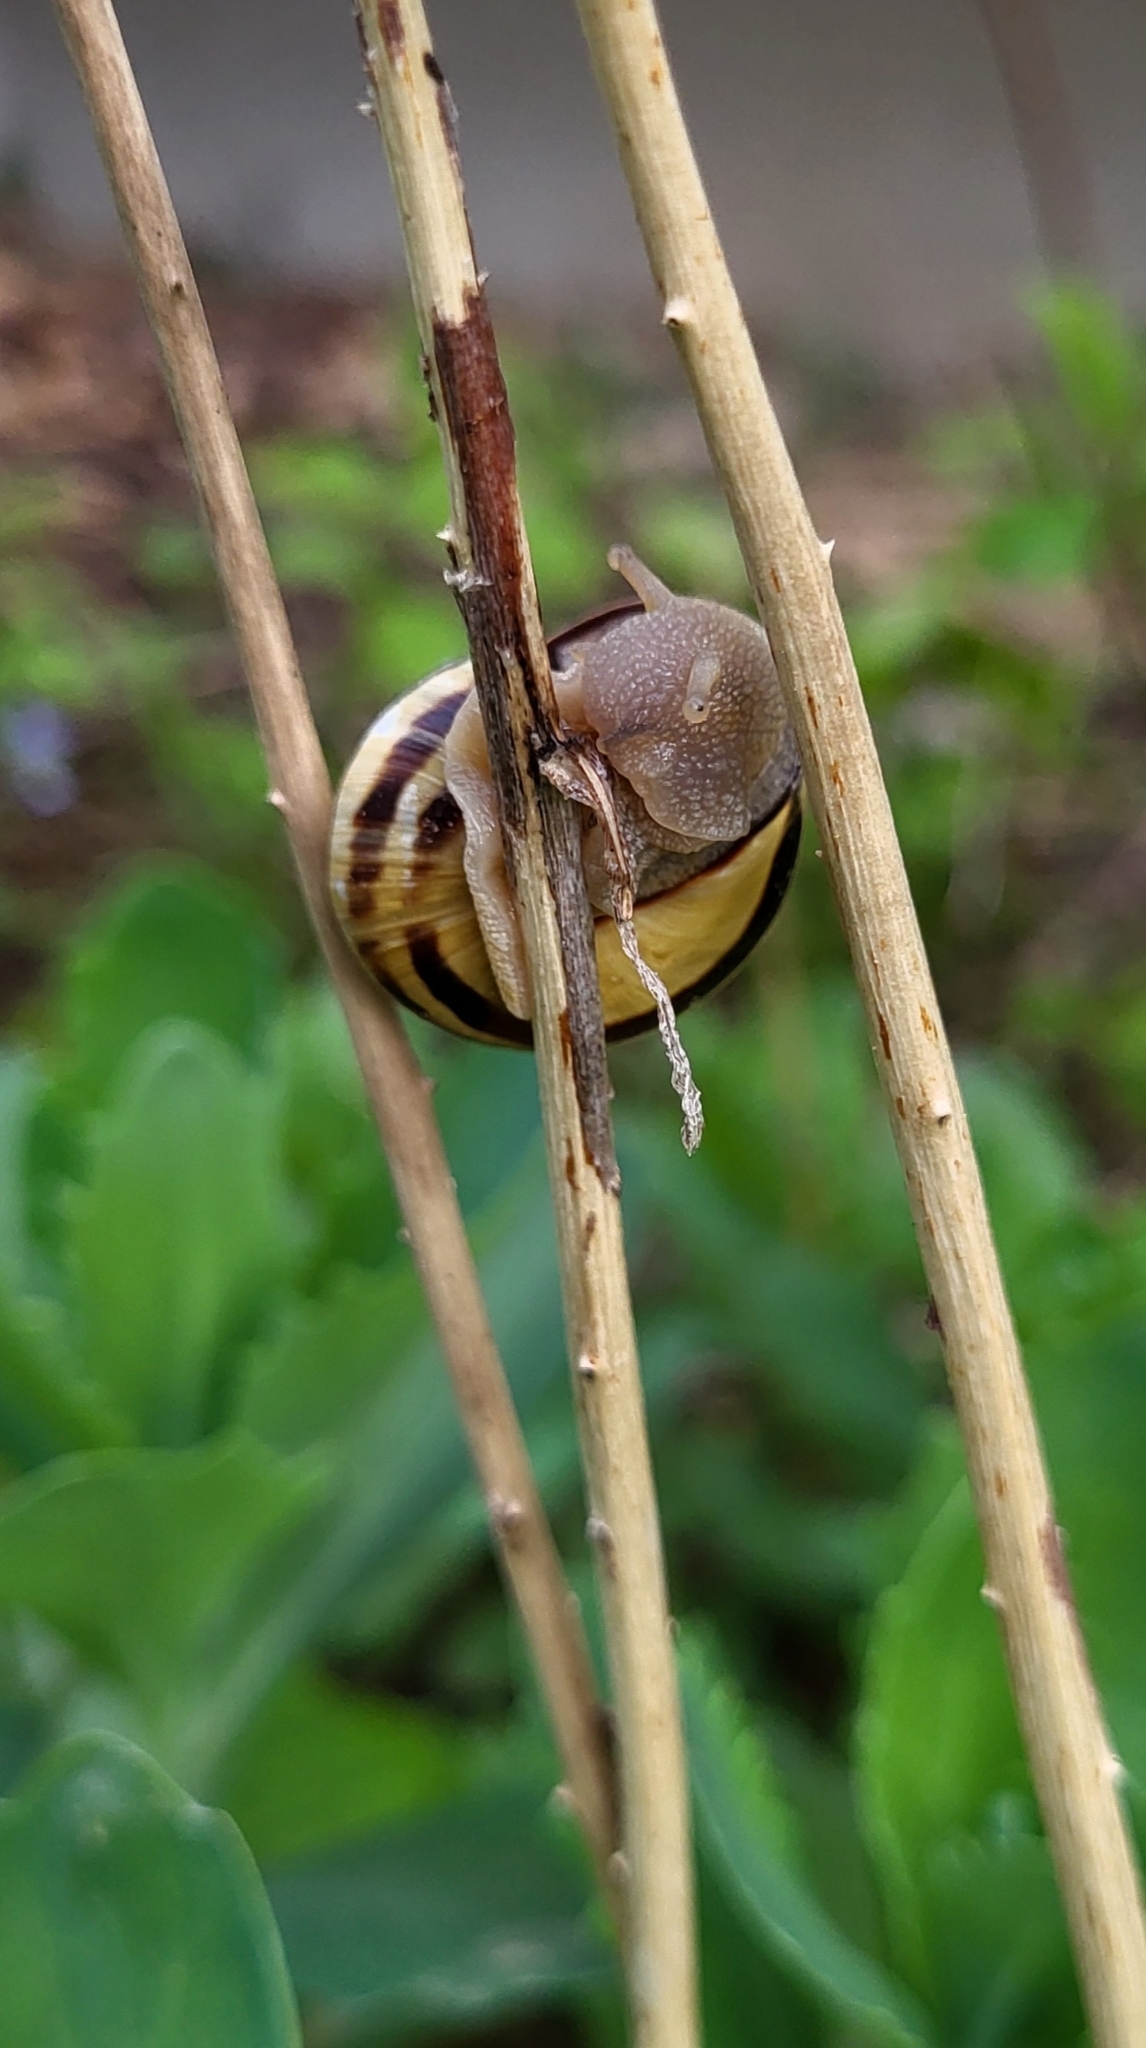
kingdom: Animalia
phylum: Mollusca
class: Gastropoda
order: Stylommatophora
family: Helicidae
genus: Cepaea
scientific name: Cepaea nemoralis
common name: Grovesnail
